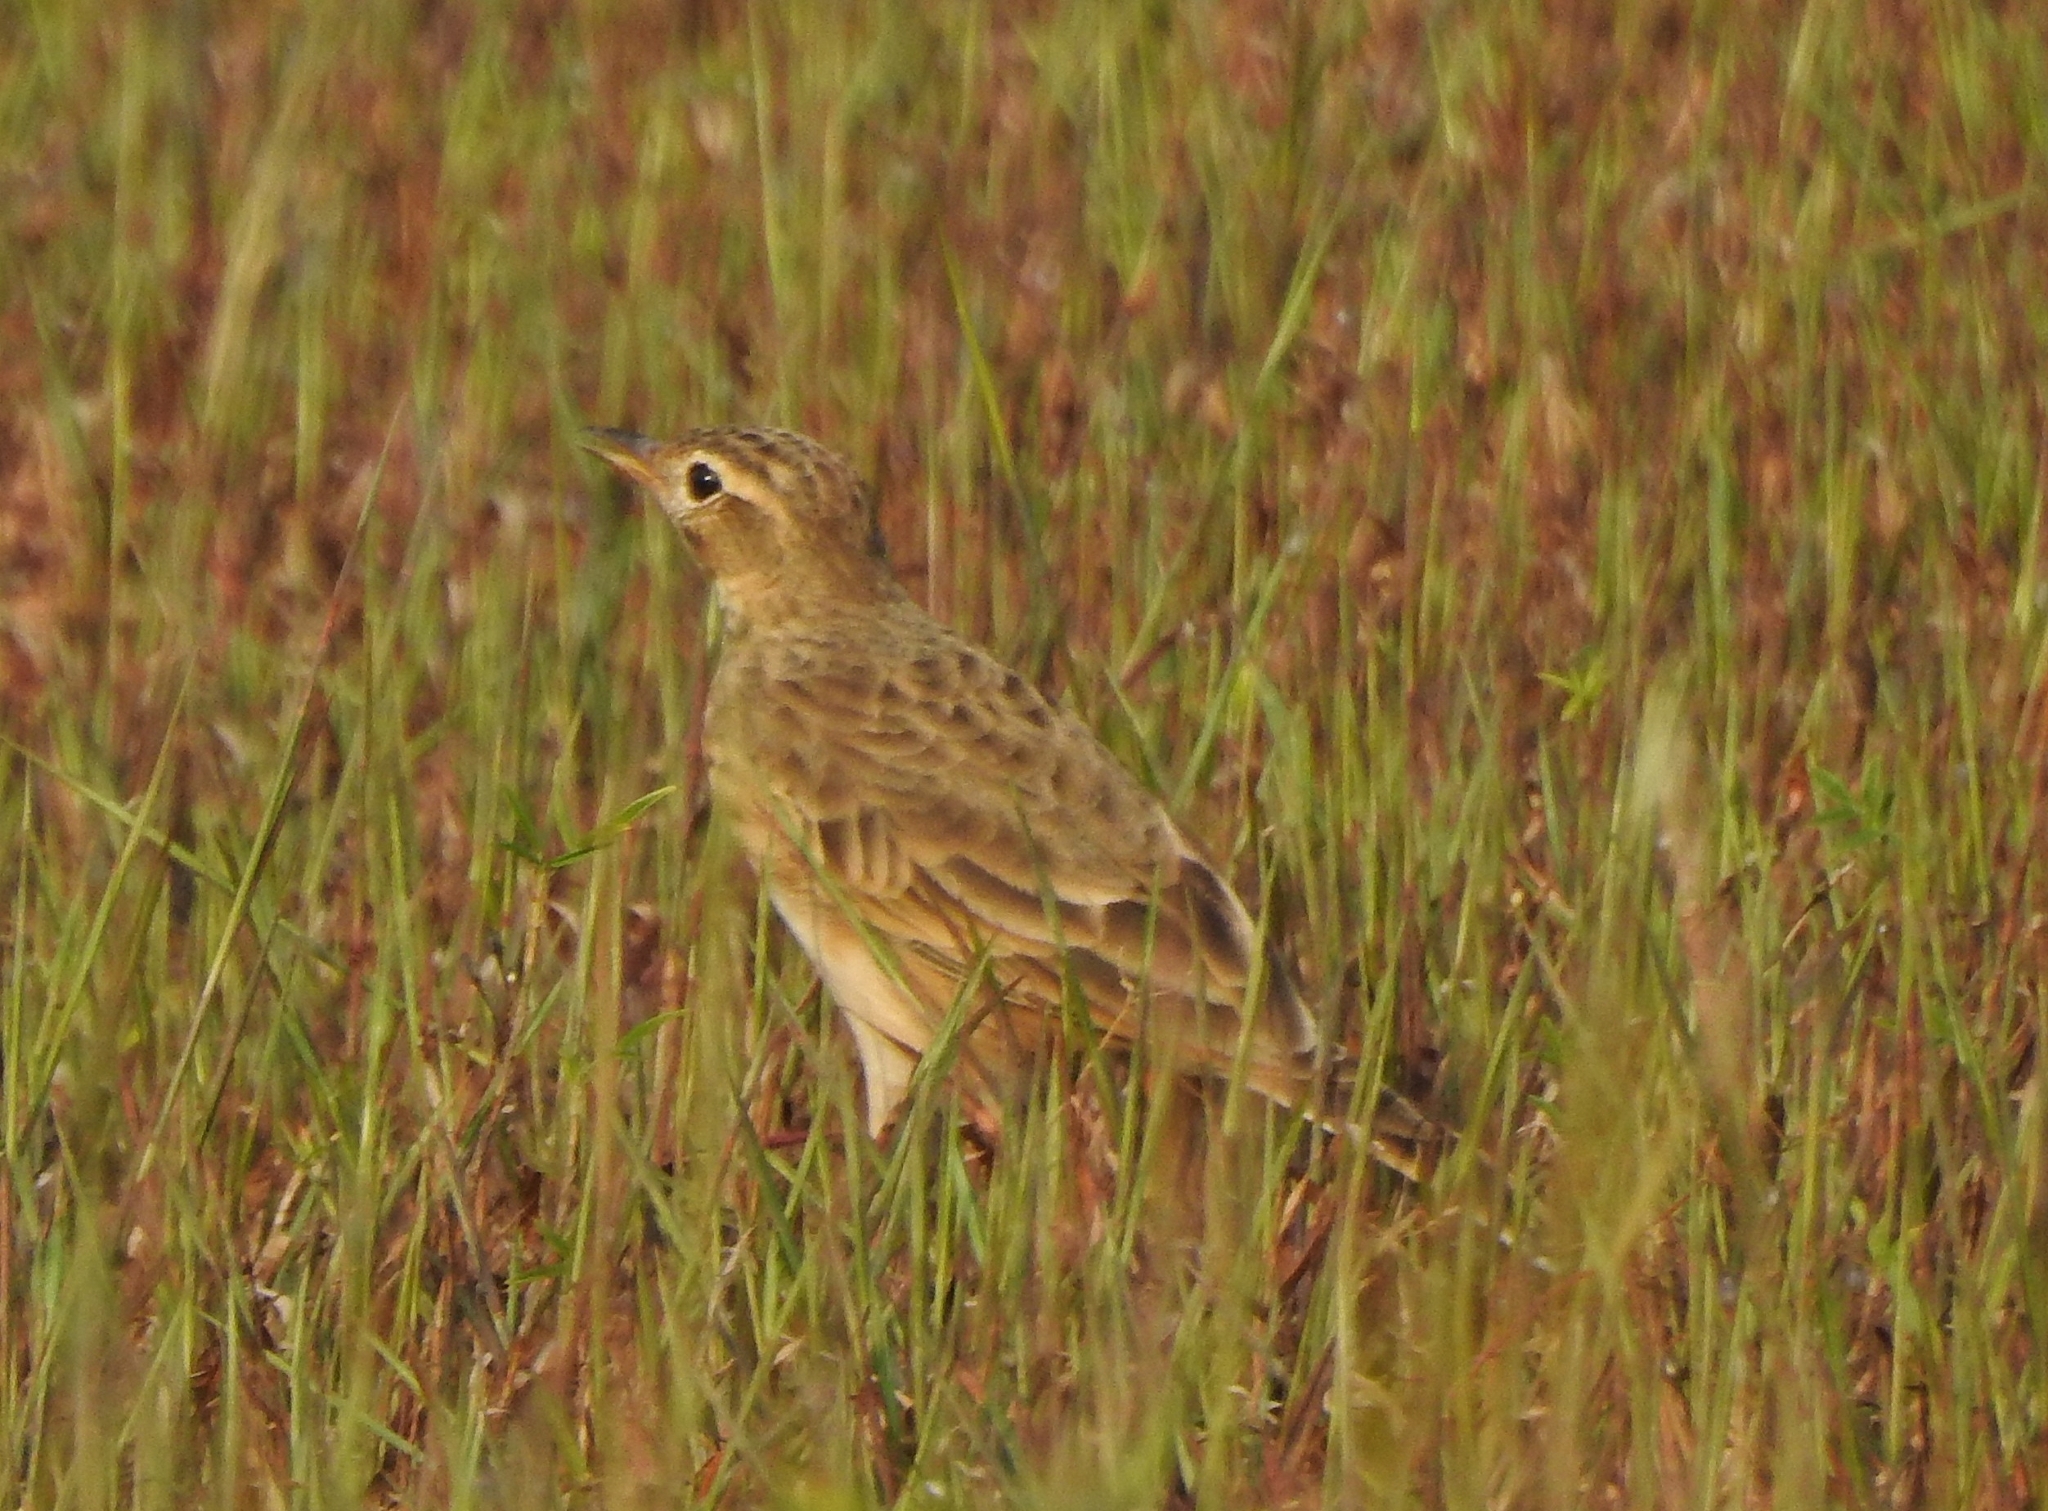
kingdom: Animalia
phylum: Chordata
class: Aves
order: Passeriformes
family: Motacillidae
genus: Anthus
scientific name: Anthus rufulus
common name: Paddyfield pipit
